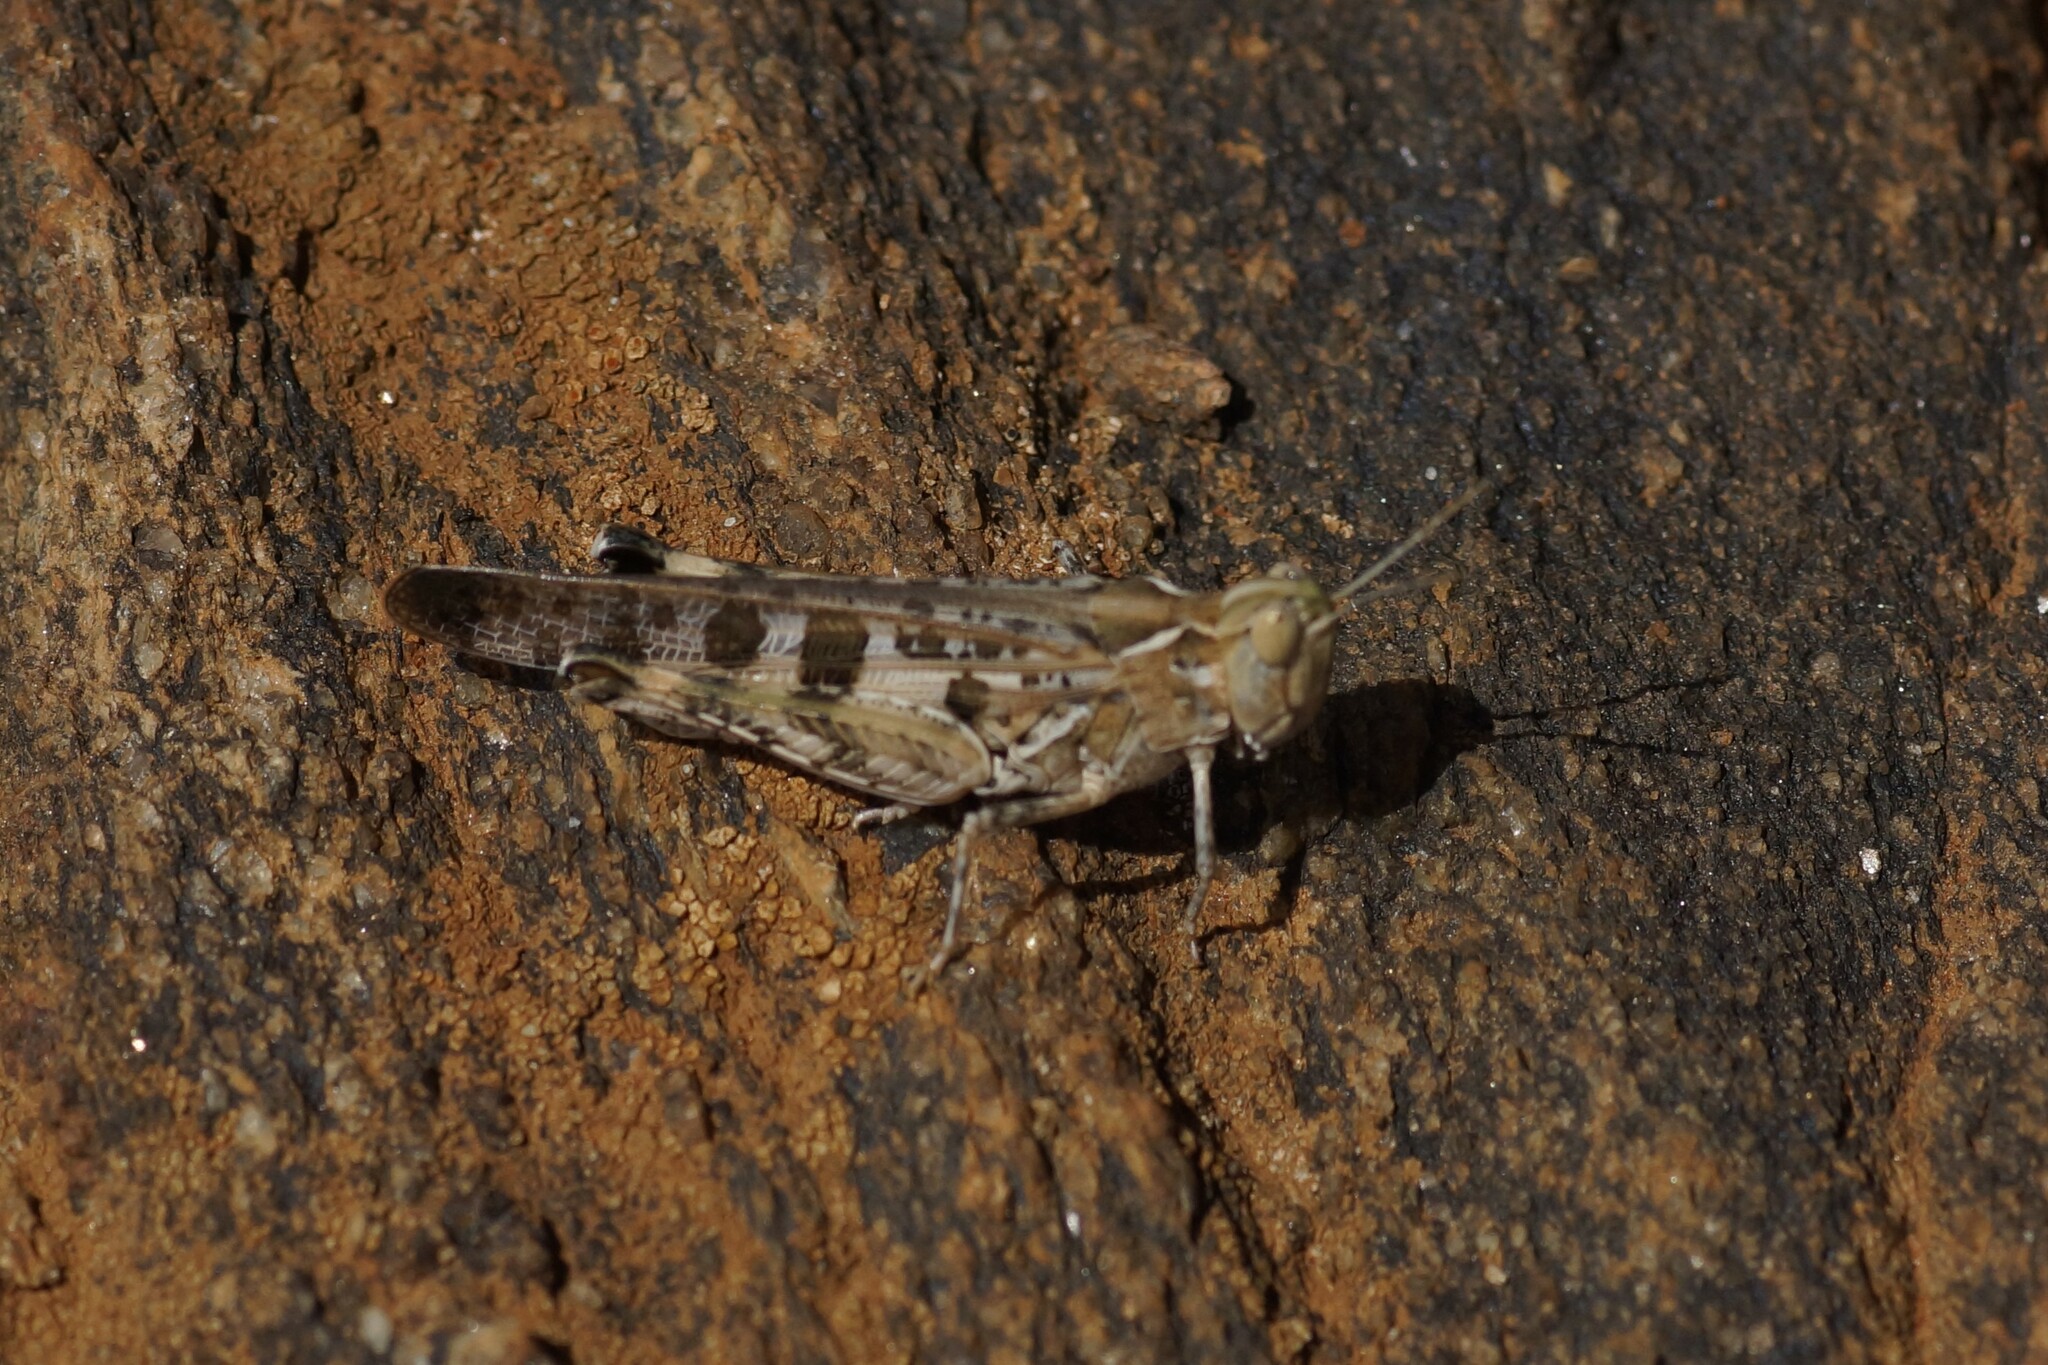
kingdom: Animalia
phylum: Arthropoda
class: Insecta
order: Orthoptera
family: Acrididae
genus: Chortoicetes
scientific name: Chortoicetes terminifera
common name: Australian plague locust
